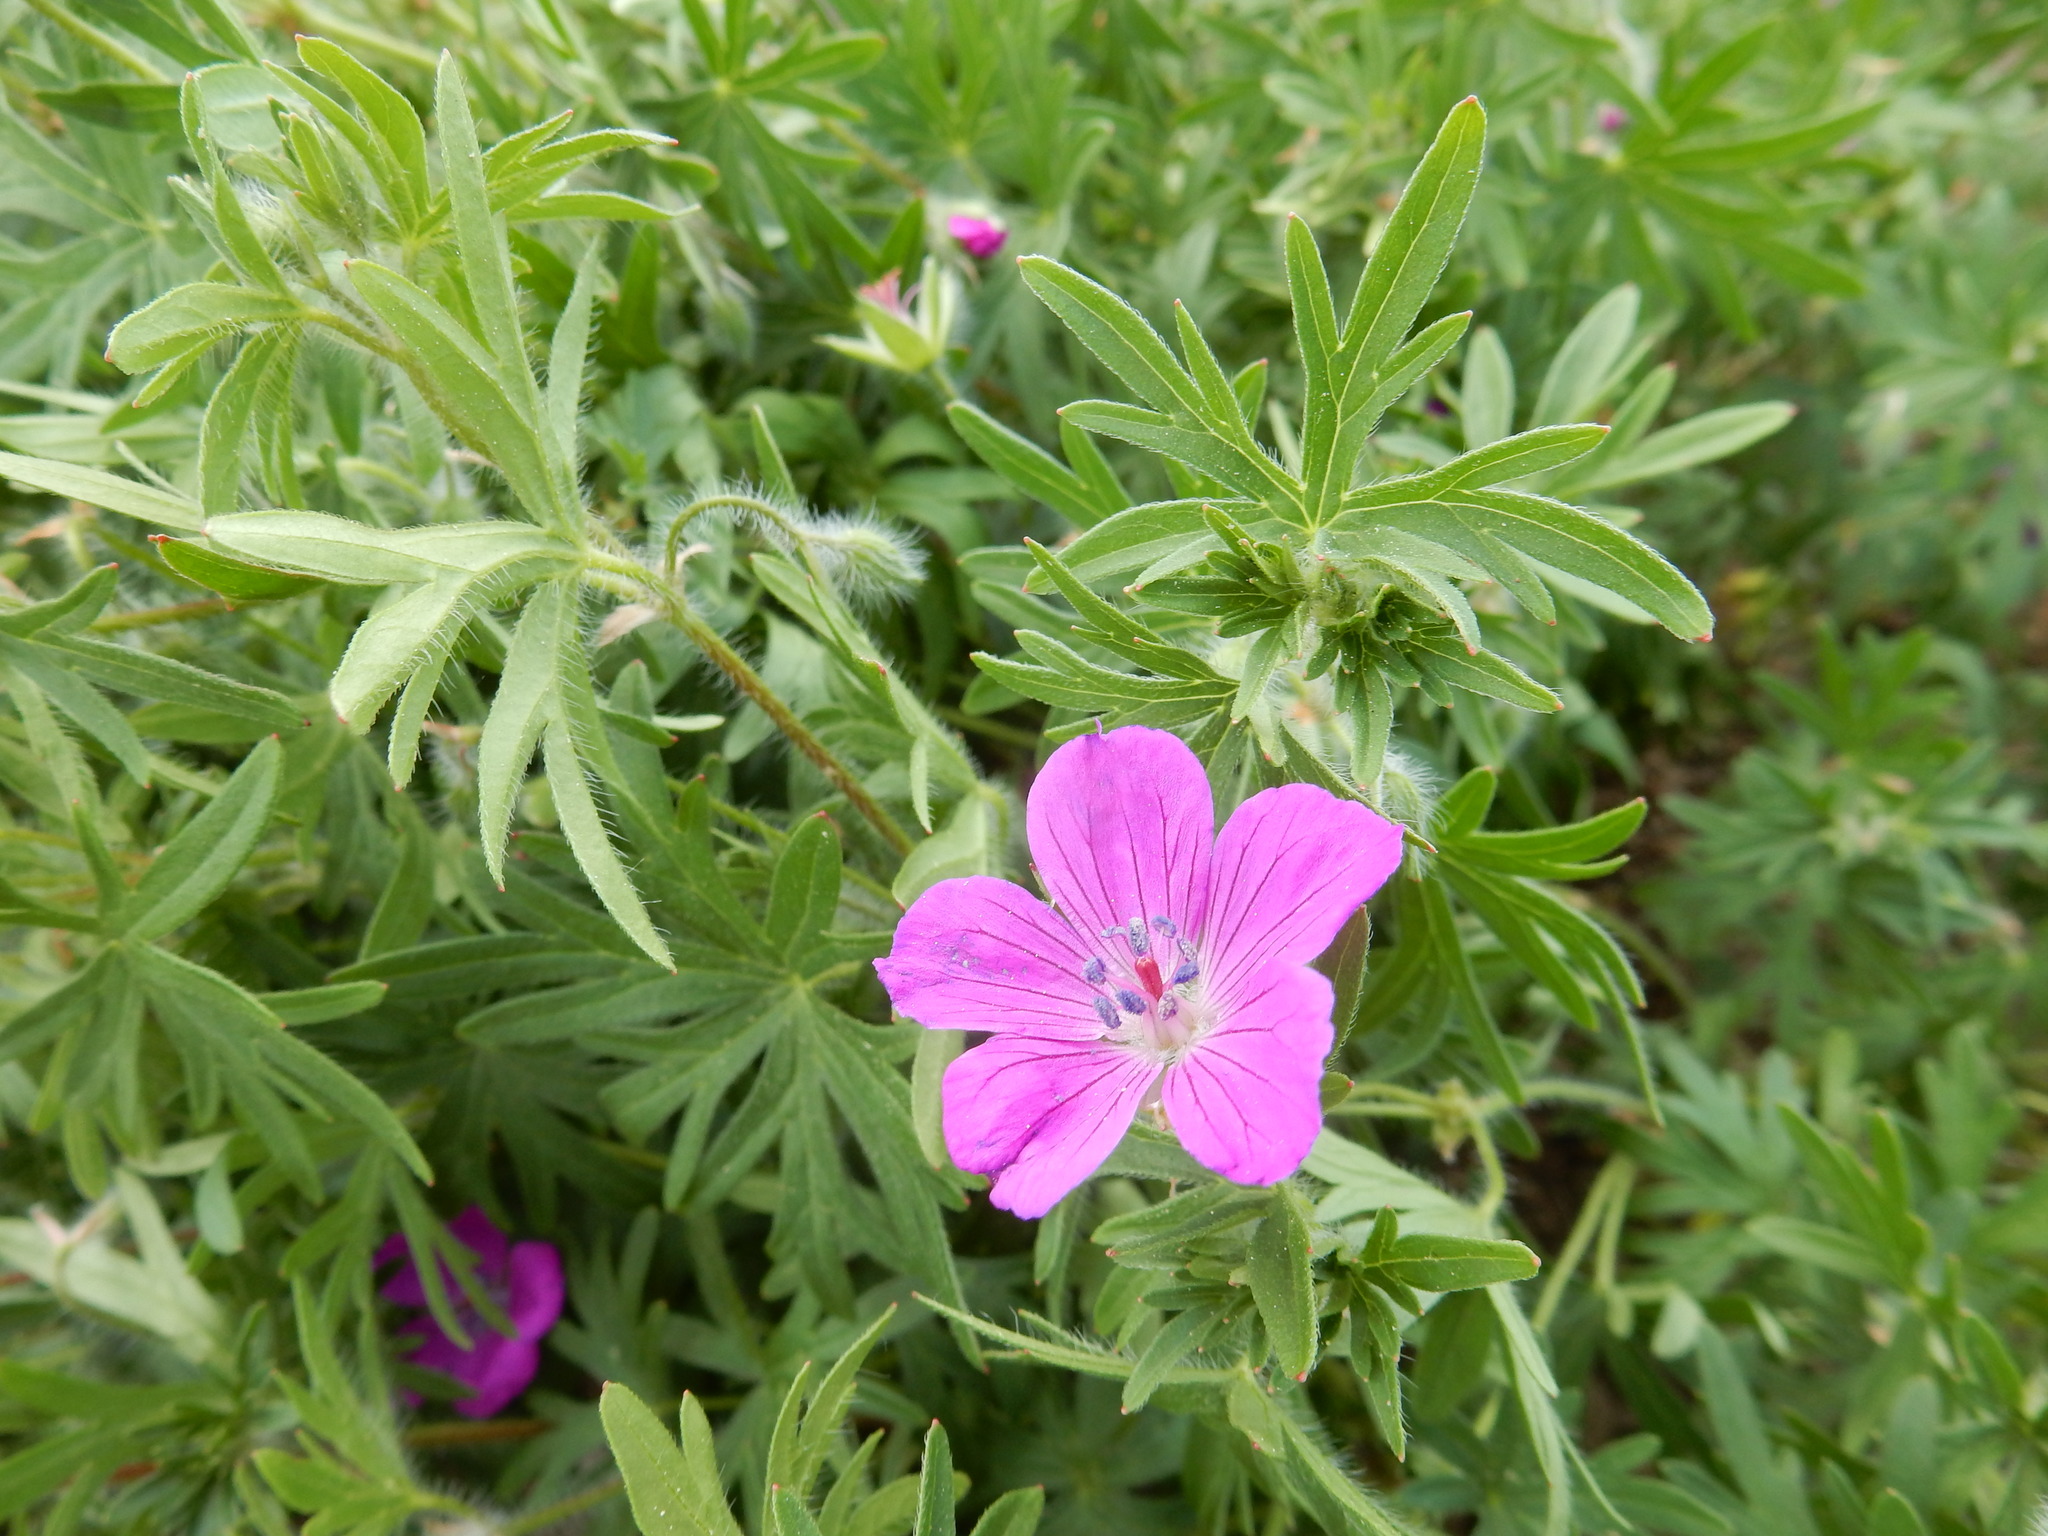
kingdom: Plantae
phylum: Tracheophyta
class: Magnoliopsida
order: Geraniales
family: Geraniaceae
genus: Geranium
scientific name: Geranium sanguineum
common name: Bloody crane's-bill
